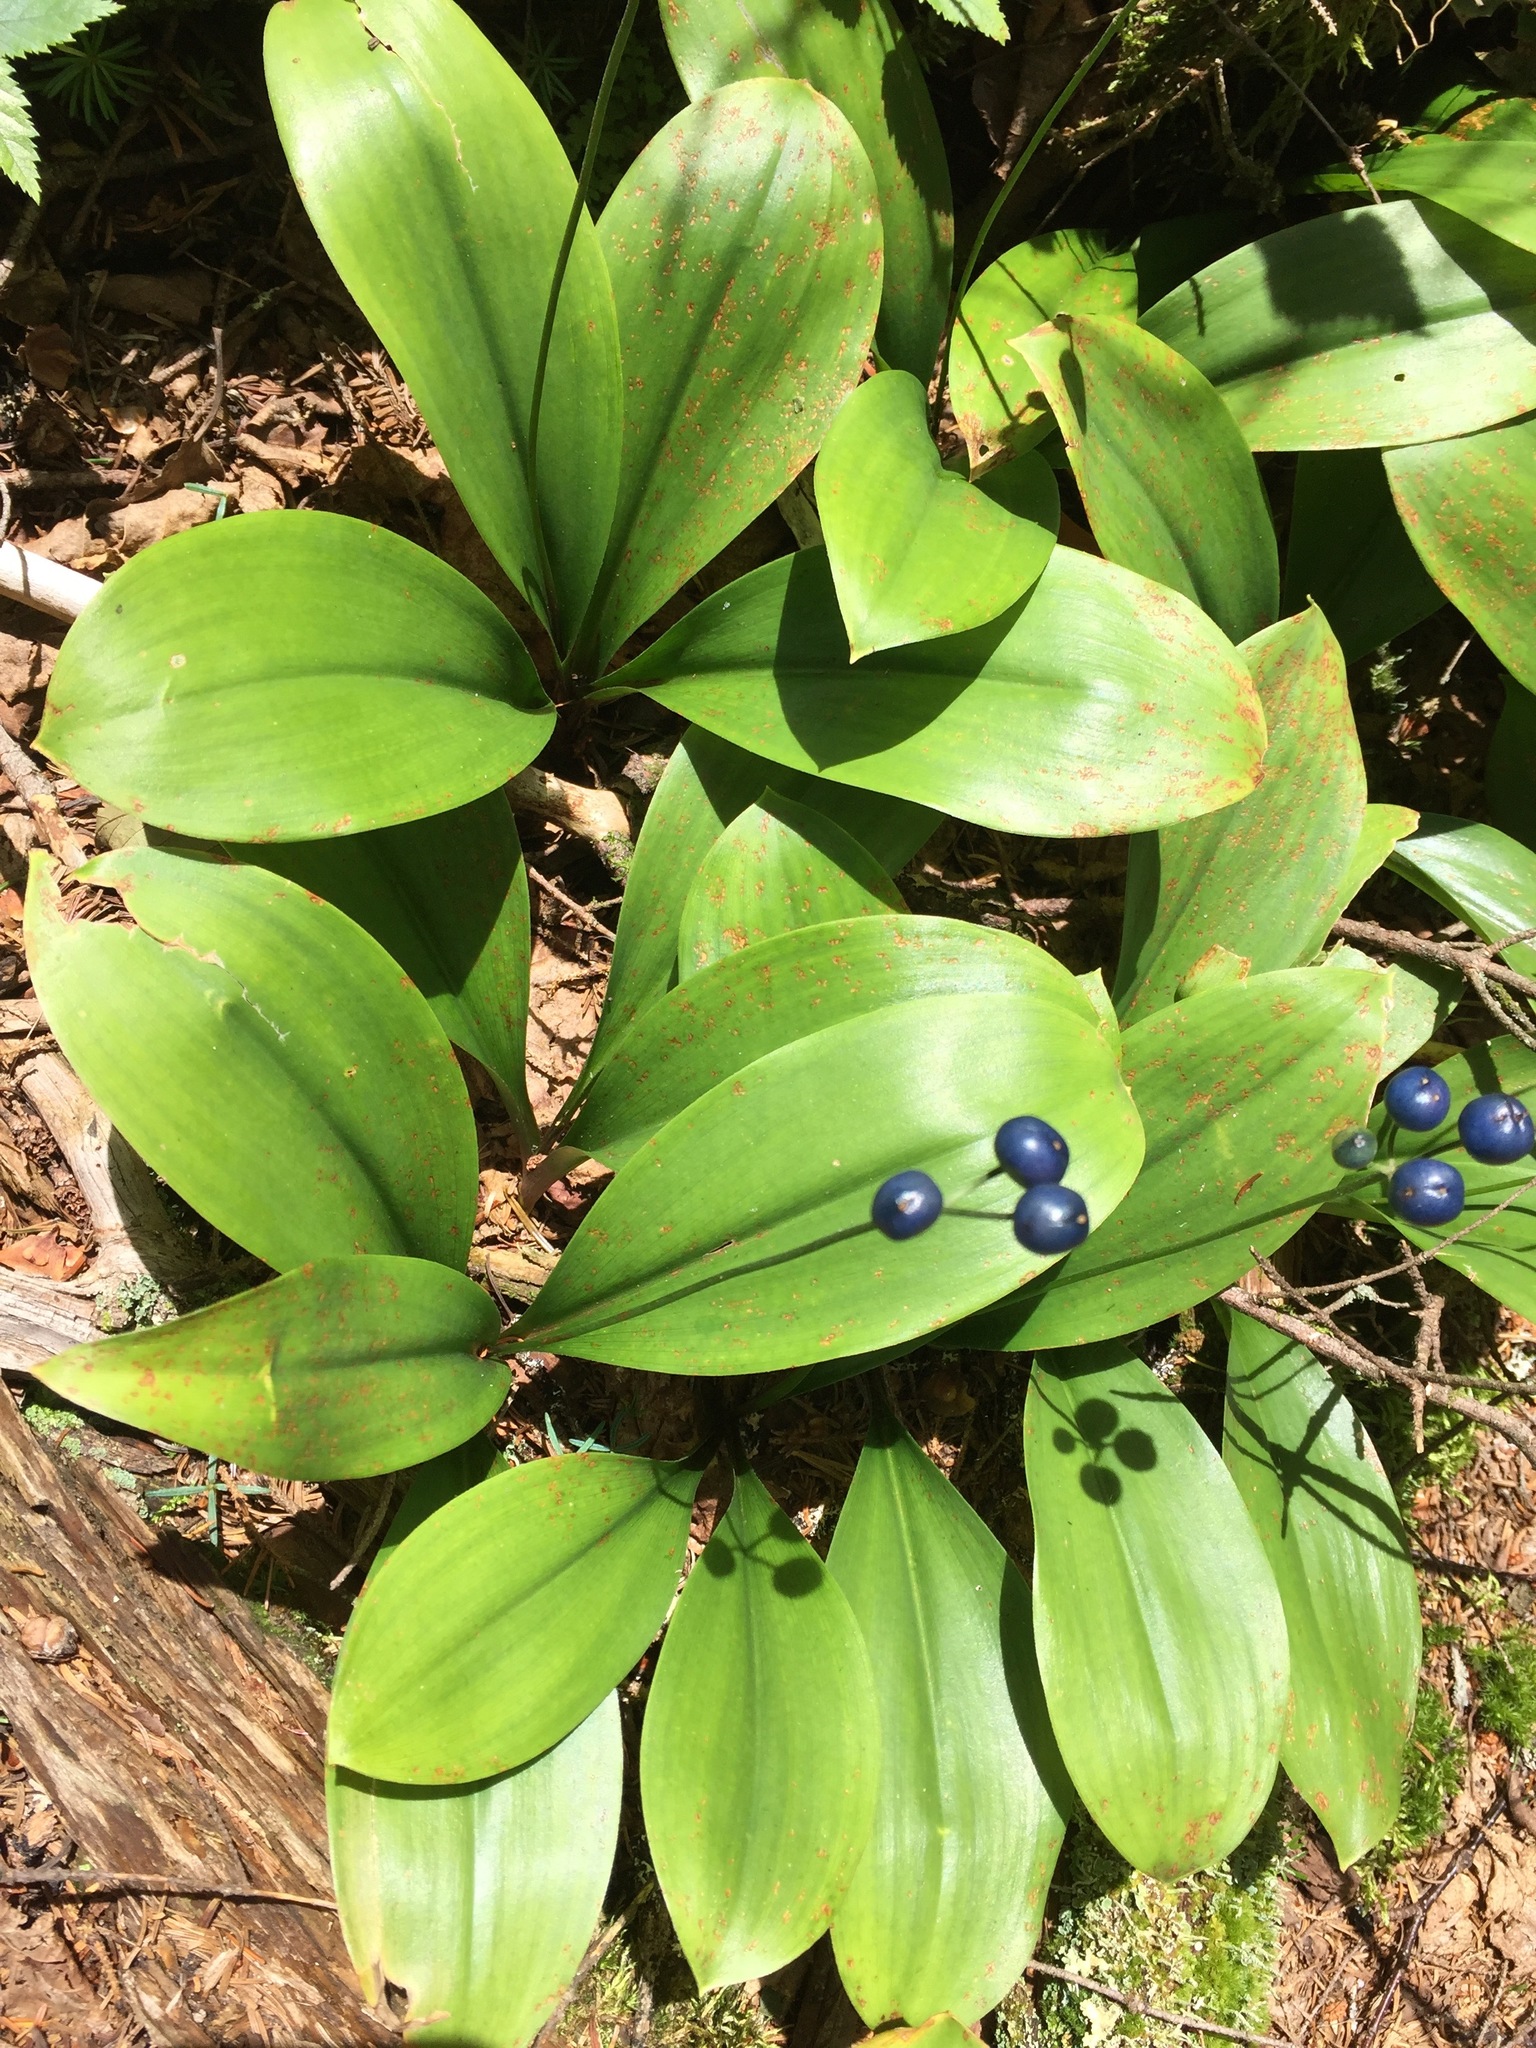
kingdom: Plantae
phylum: Tracheophyta
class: Liliopsida
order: Liliales
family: Liliaceae
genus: Clintonia
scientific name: Clintonia borealis
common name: Yellow clintonia
